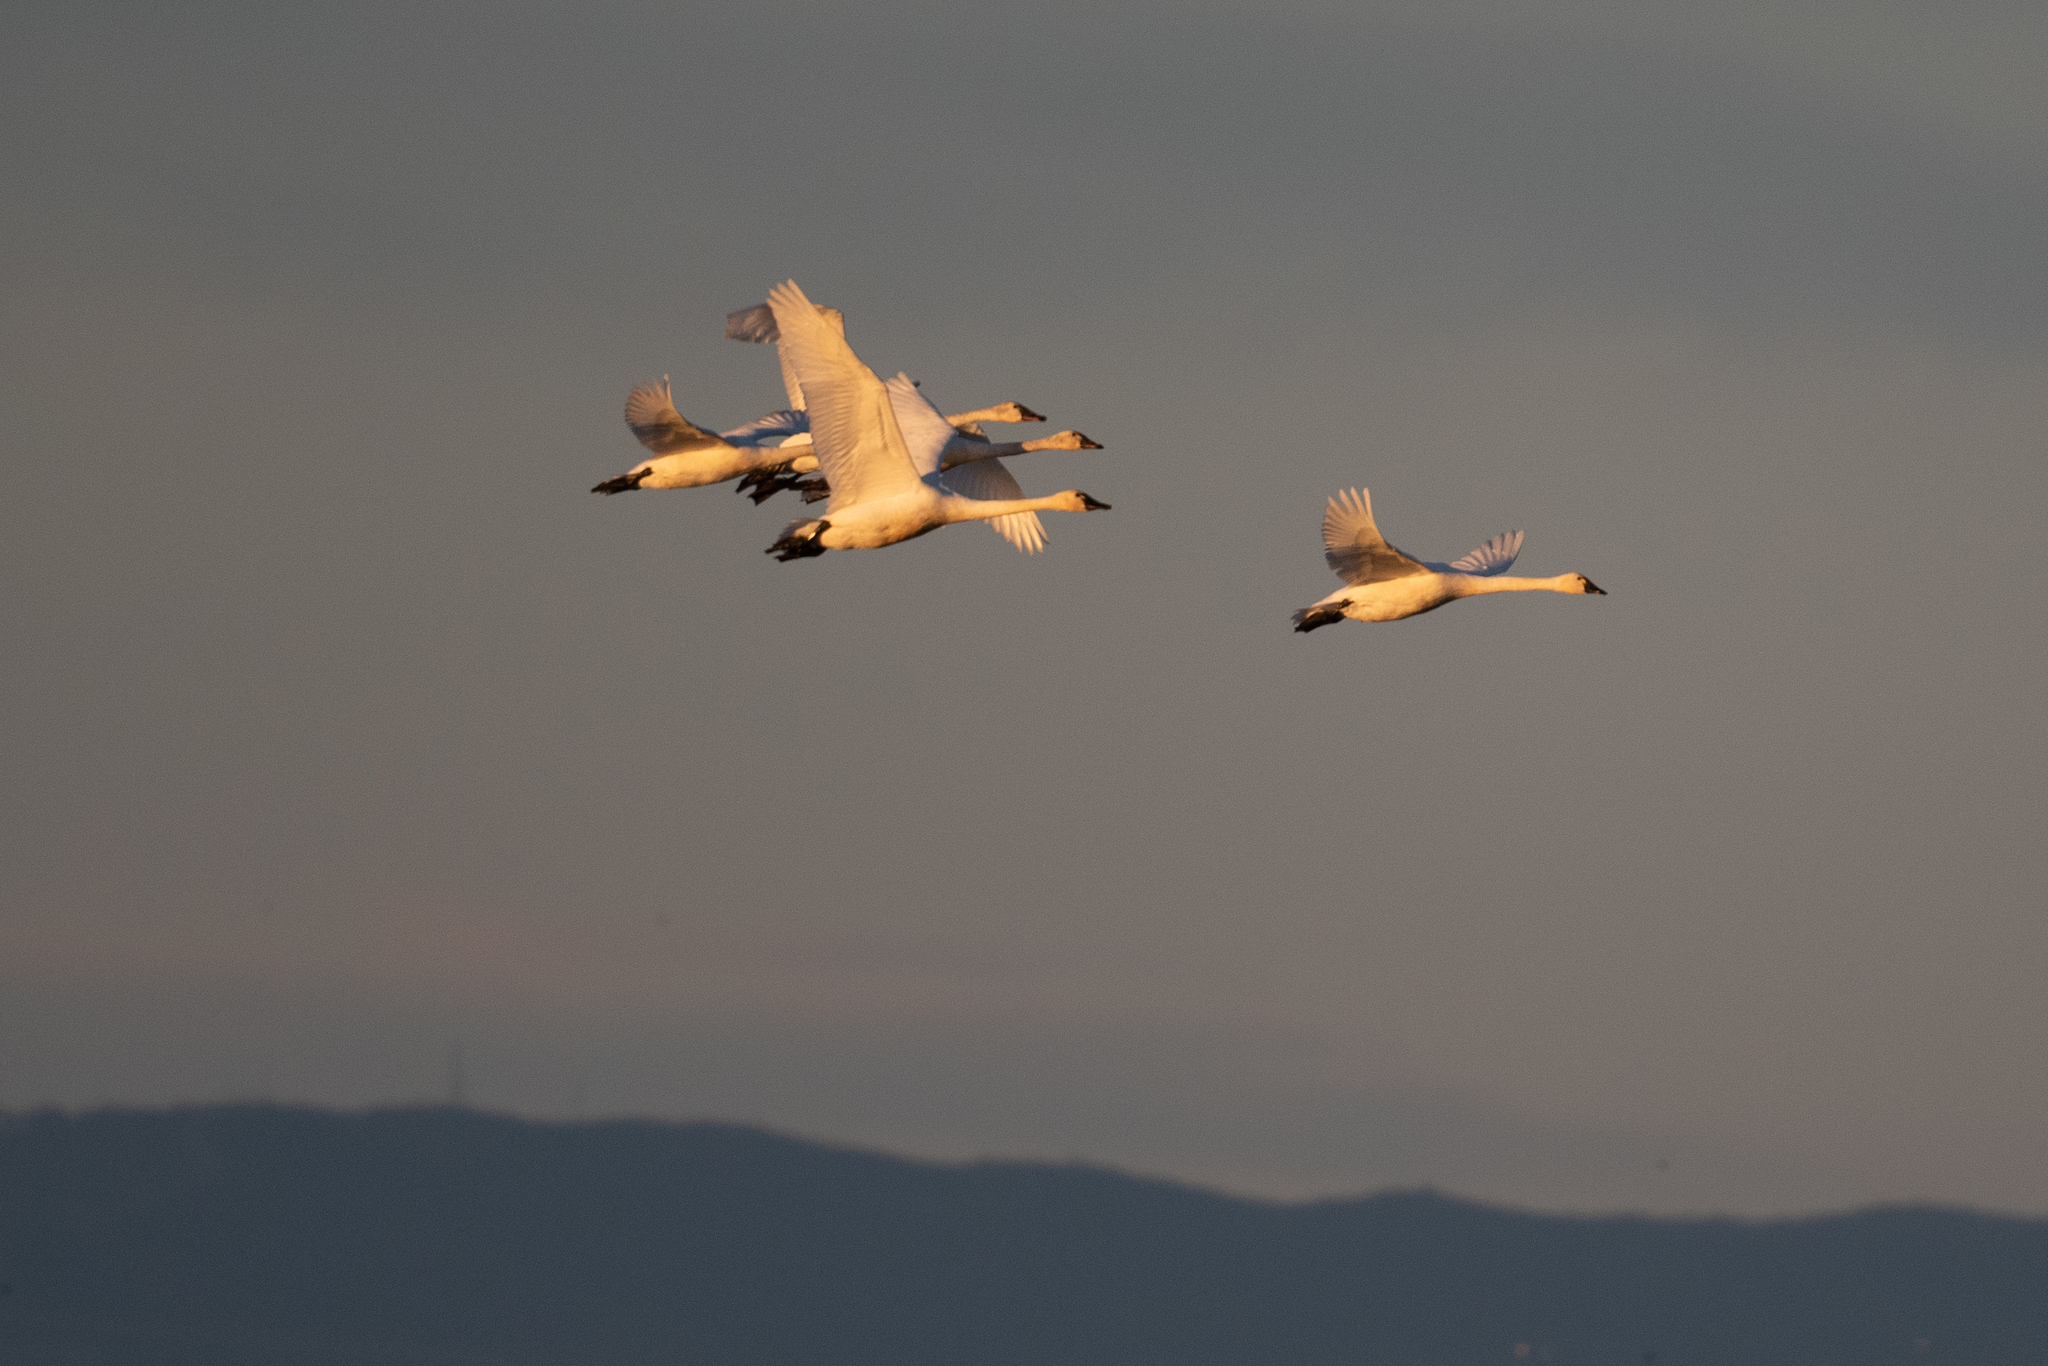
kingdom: Animalia
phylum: Chordata
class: Aves
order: Anseriformes
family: Anatidae
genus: Cygnus
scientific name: Cygnus columbianus
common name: Tundra swan
